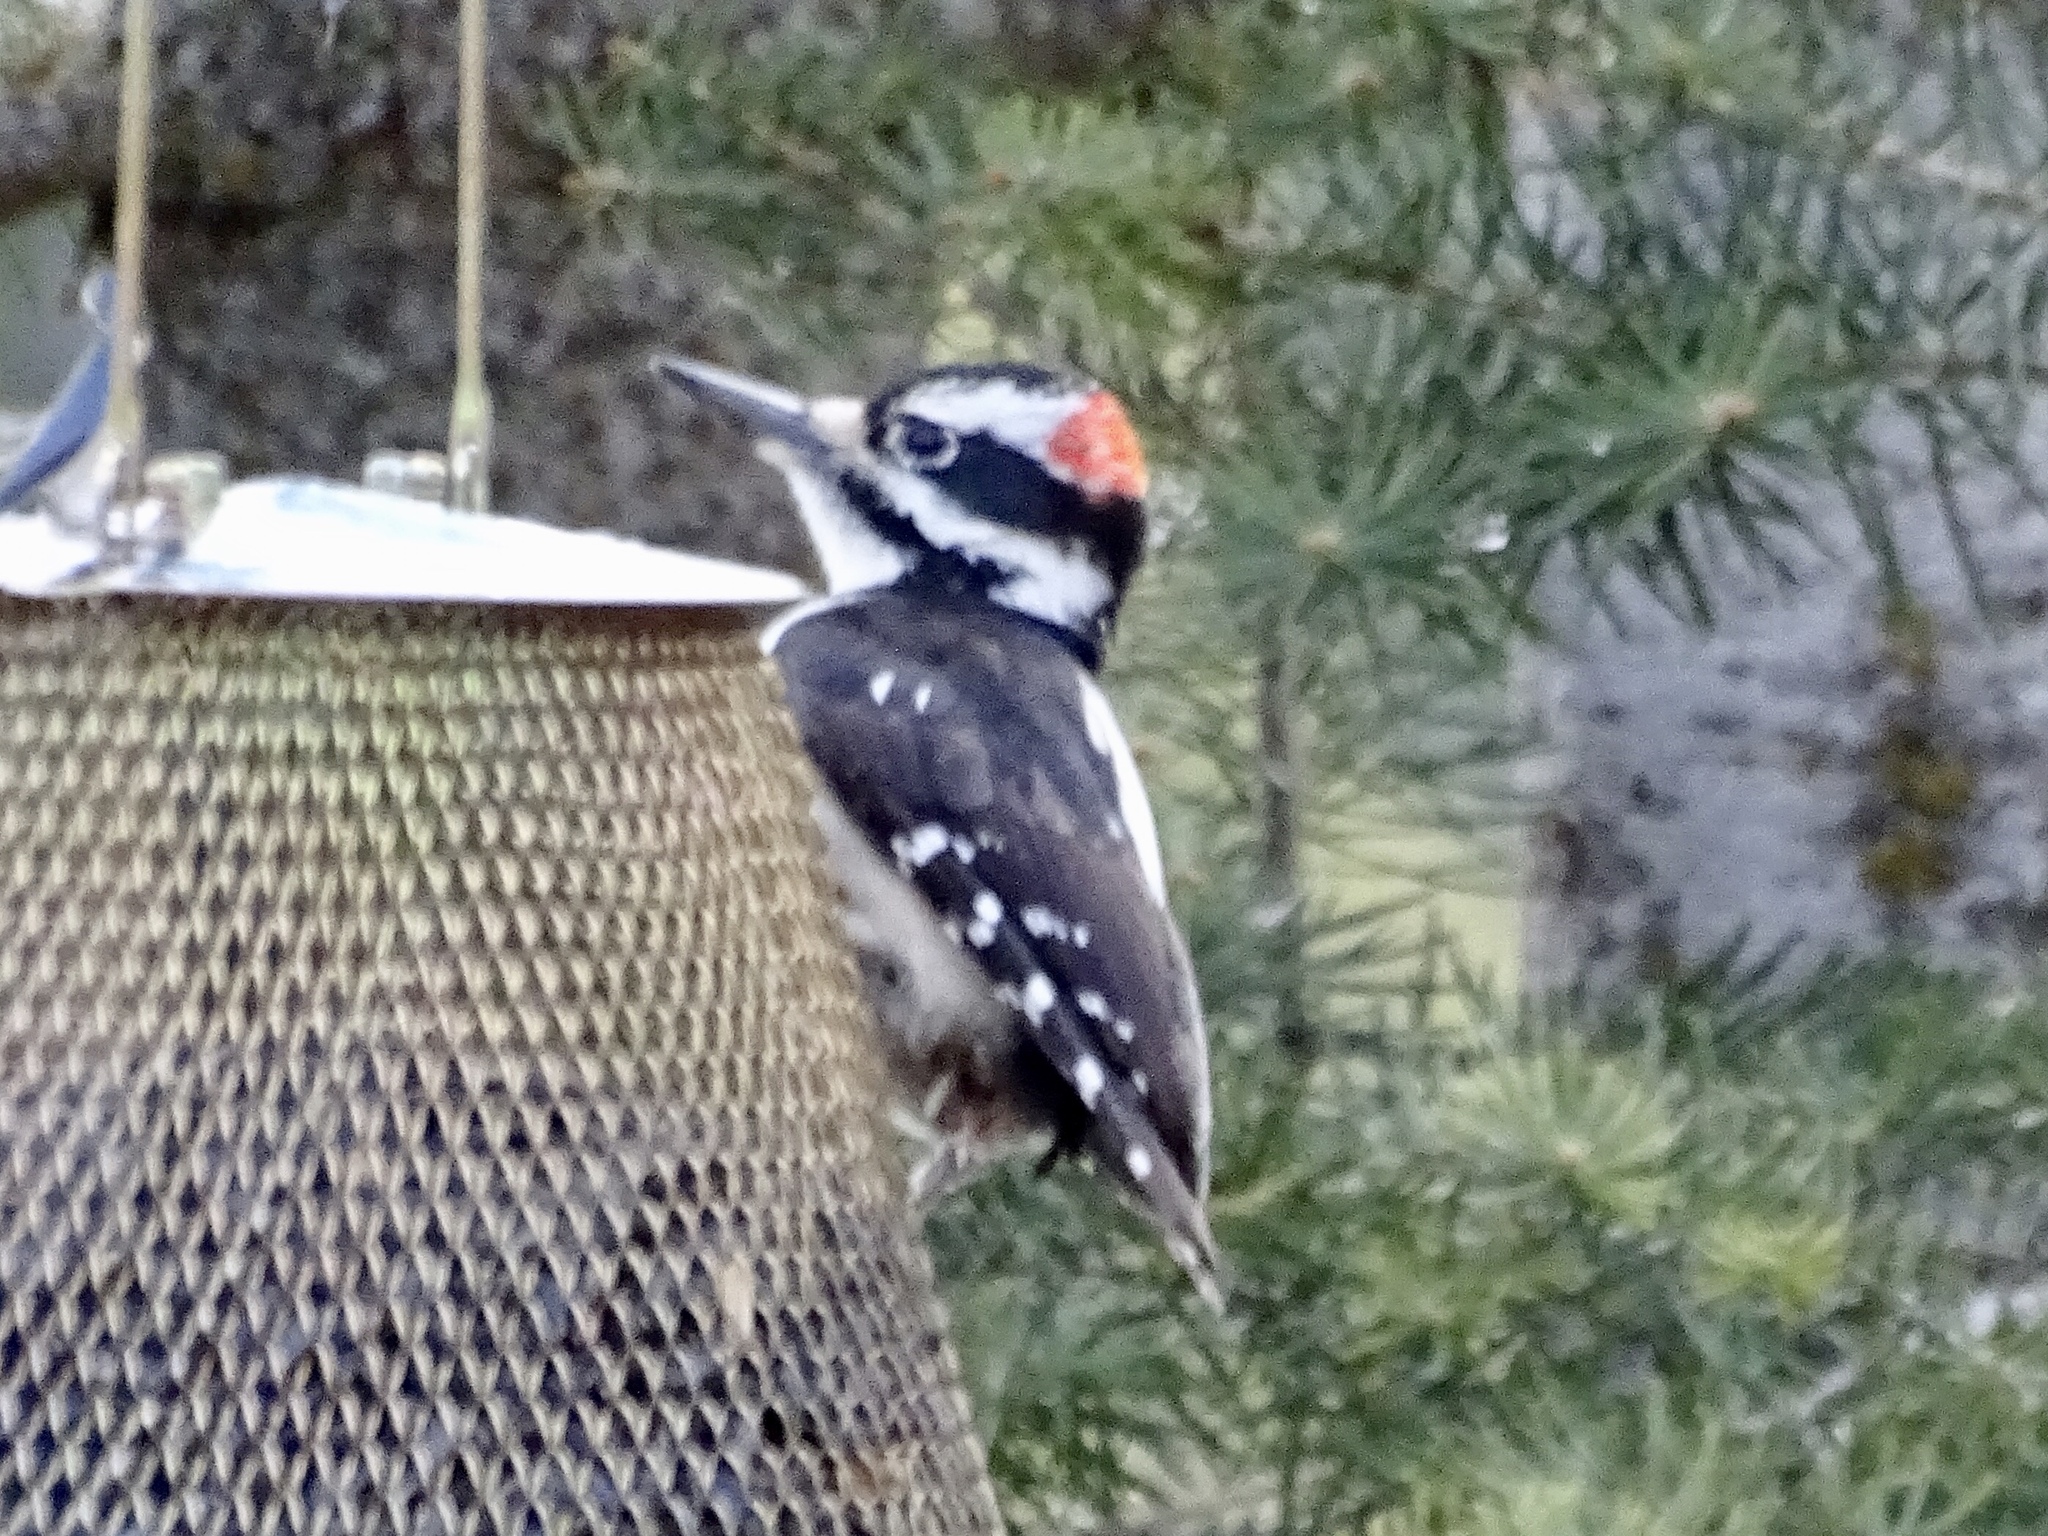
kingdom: Animalia
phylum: Chordata
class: Aves
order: Piciformes
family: Picidae
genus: Leuconotopicus
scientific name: Leuconotopicus villosus
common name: Hairy woodpecker
